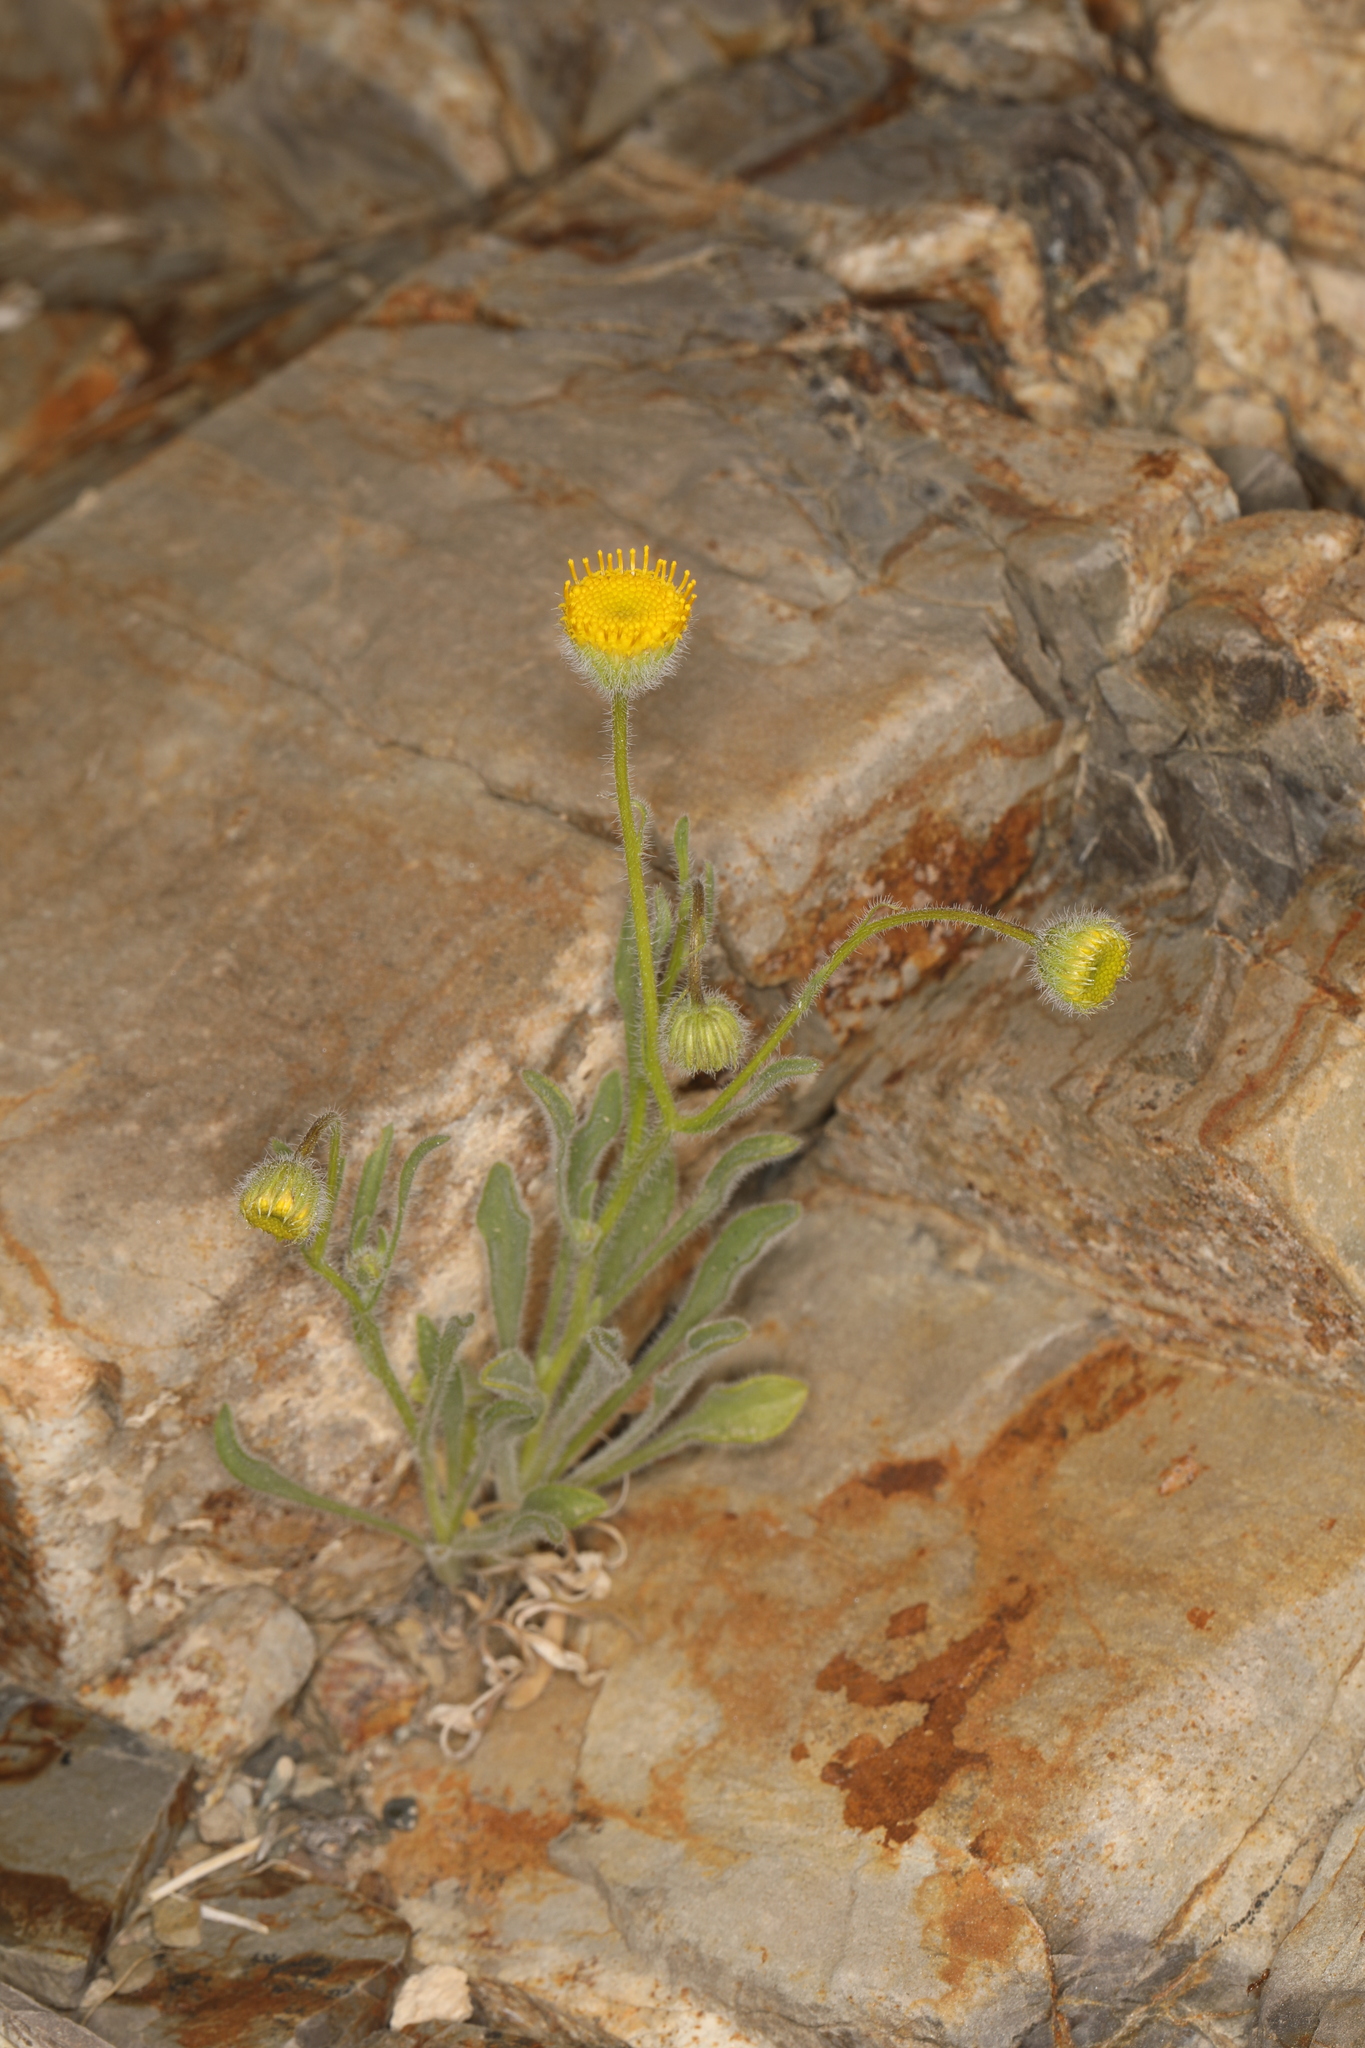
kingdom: Plantae
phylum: Tracheophyta
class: Magnoliopsida
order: Asterales
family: Asteraceae
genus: Erigeron
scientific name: Erigeron aphanactis
